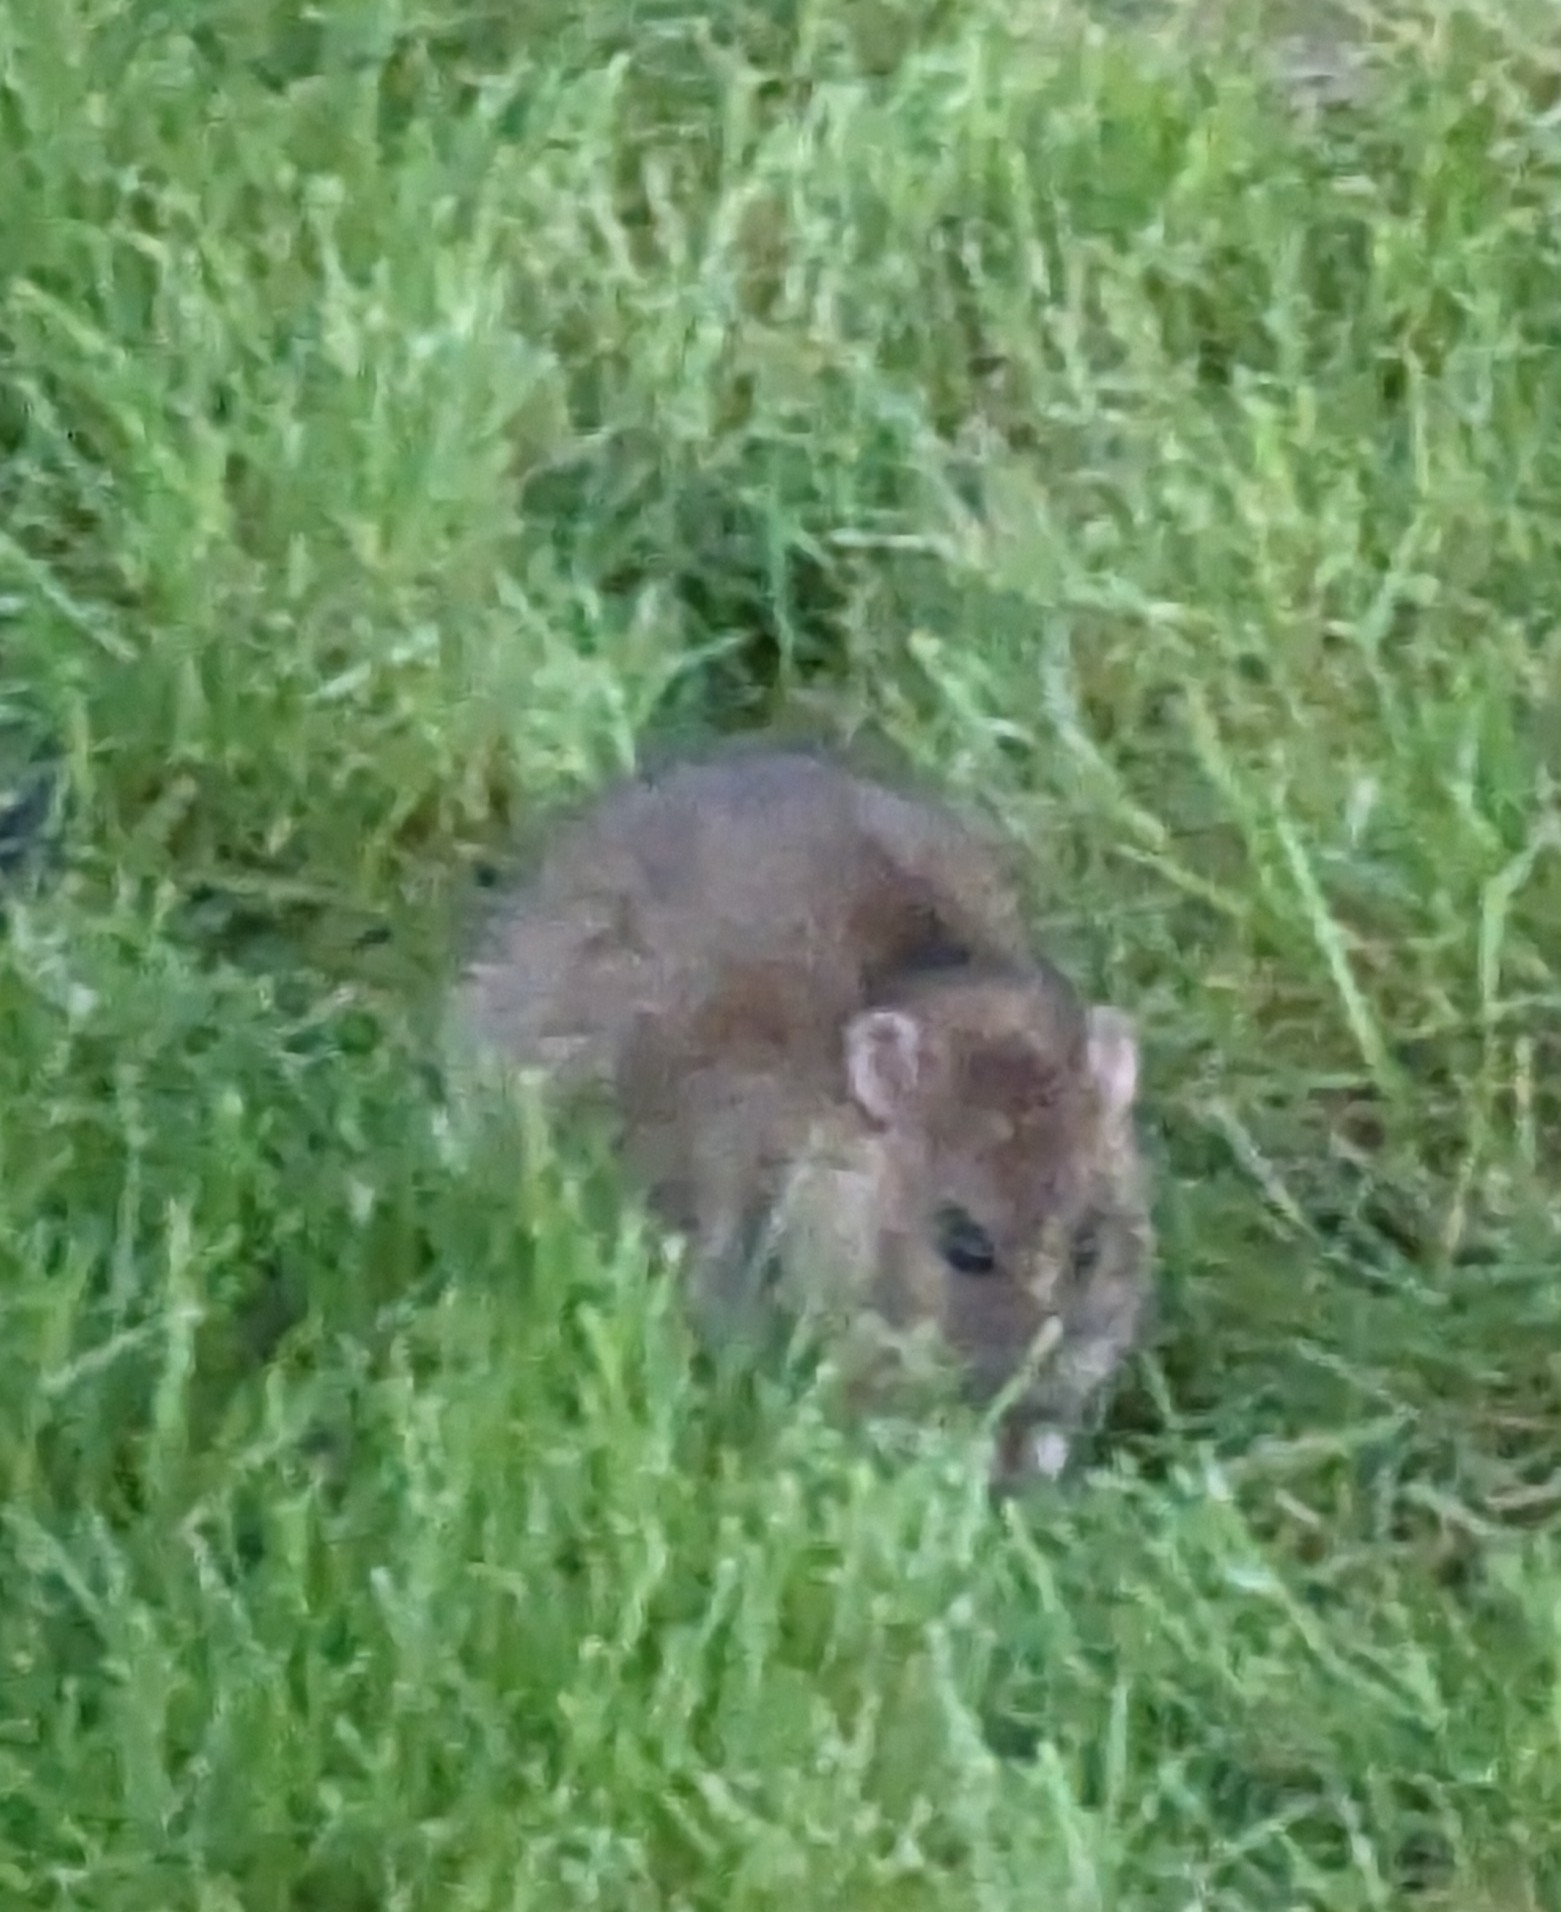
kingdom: Animalia
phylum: Chordata
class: Mammalia
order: Rodentia
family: Muridae
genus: Rattus
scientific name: Rattus norvegicus
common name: Brown rat
